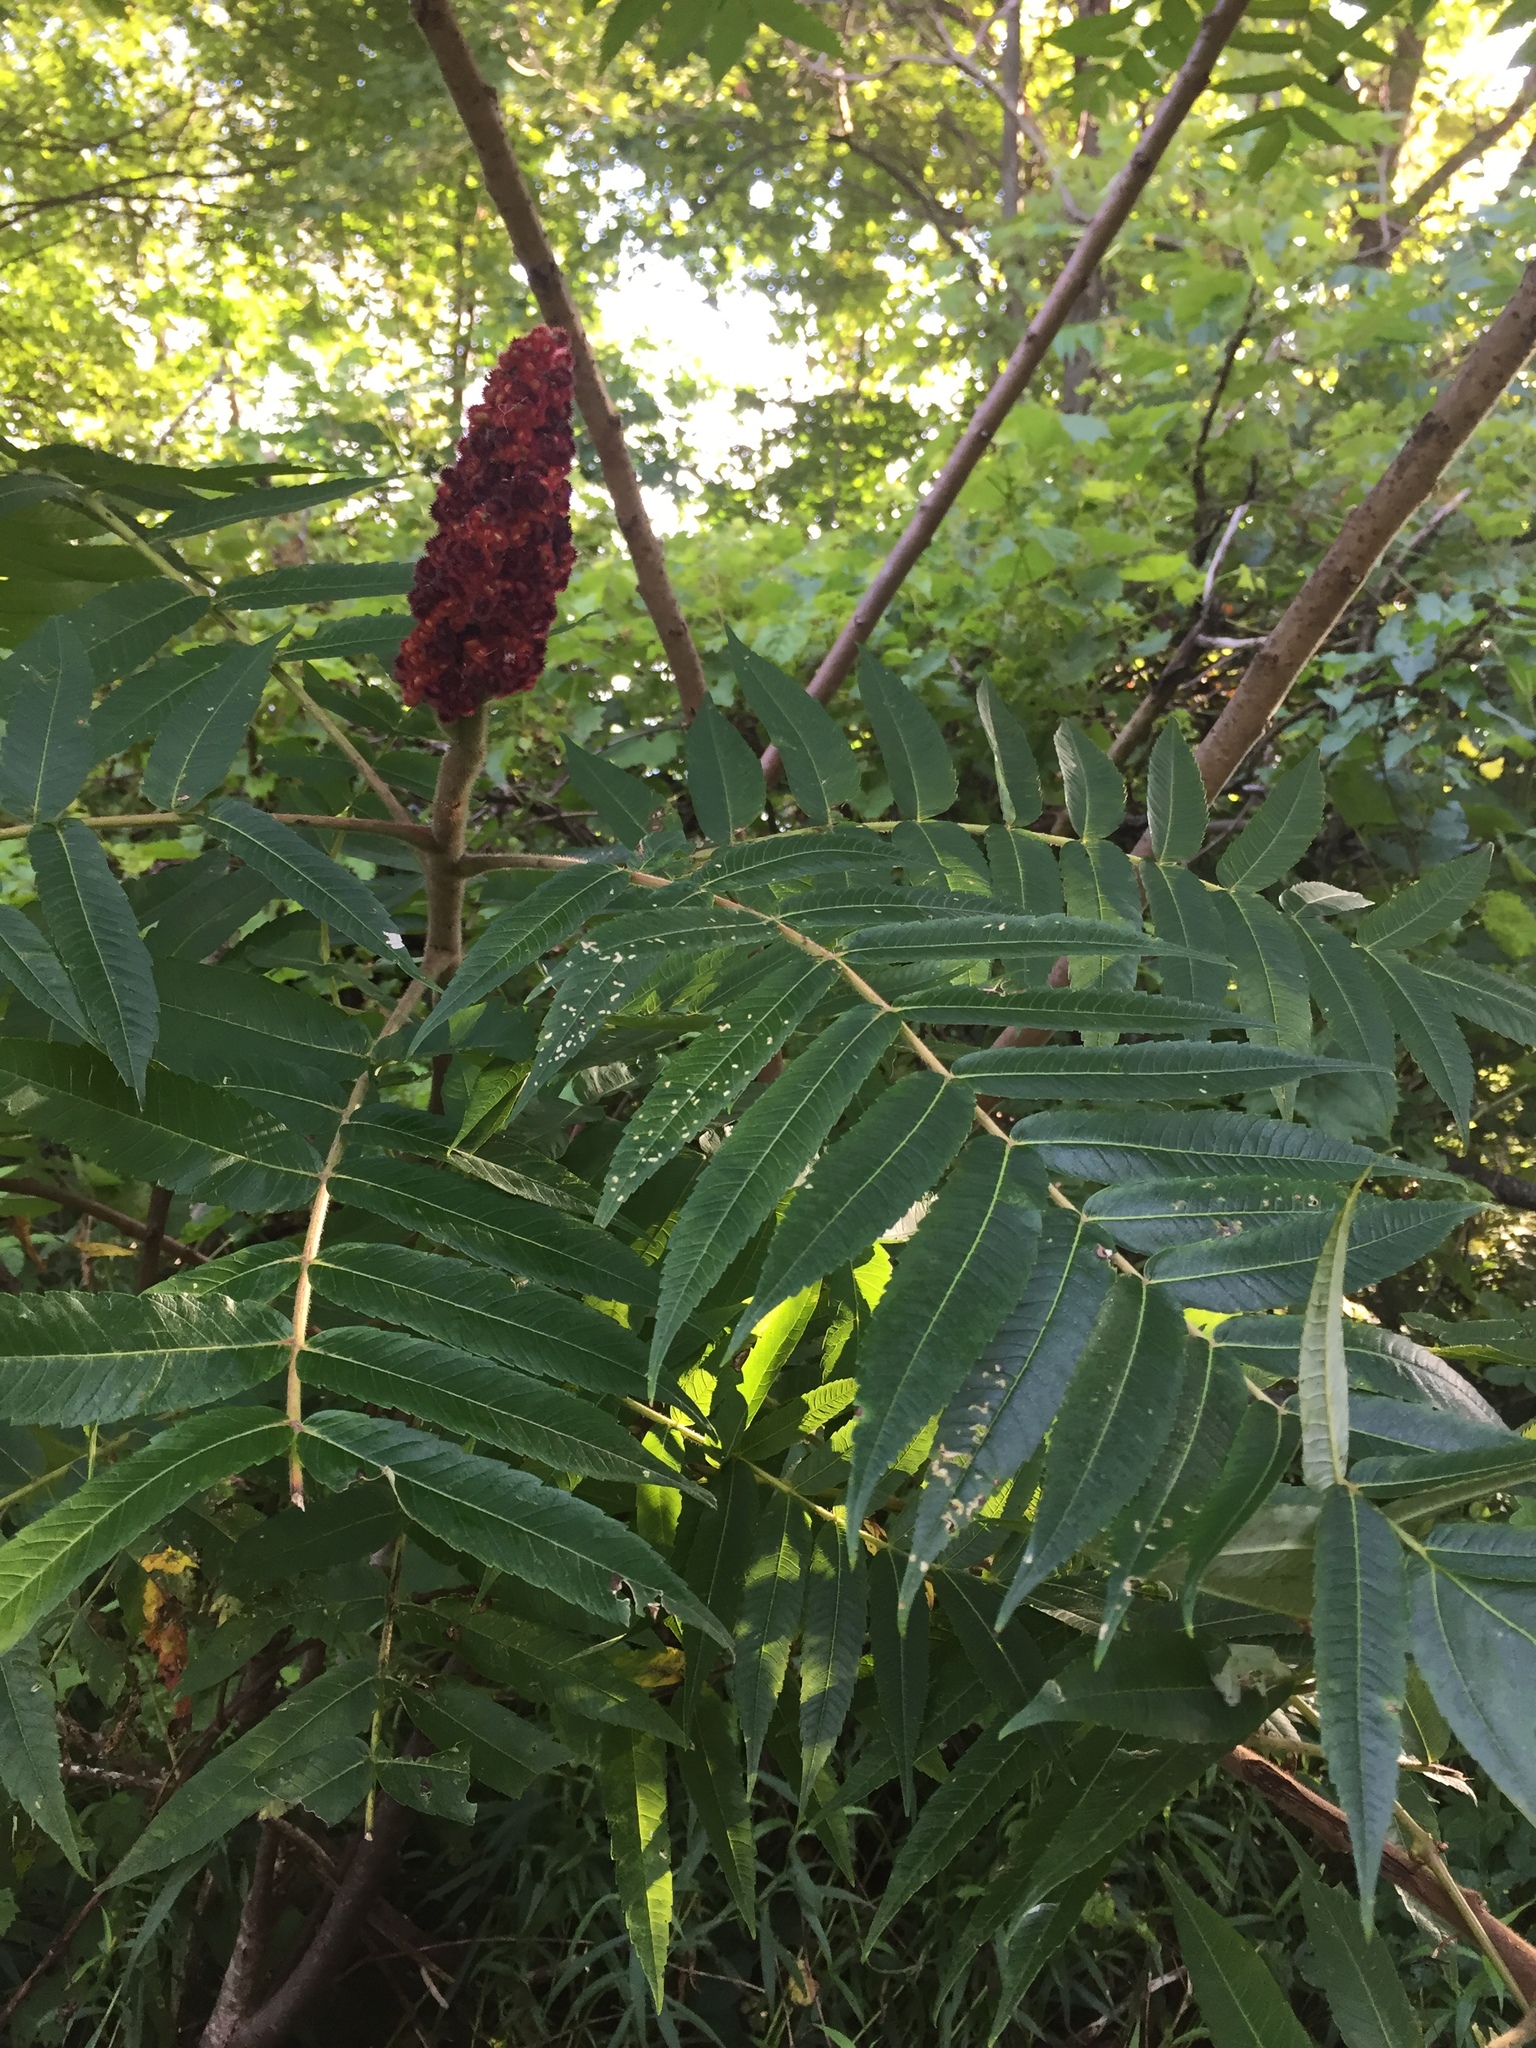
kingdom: Plantae
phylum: Tracheophyta
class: Magnoliopsida
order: Sapindales
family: Anacardiaceae
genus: Rhus
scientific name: Rhus typhina
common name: Staghorn sumac
